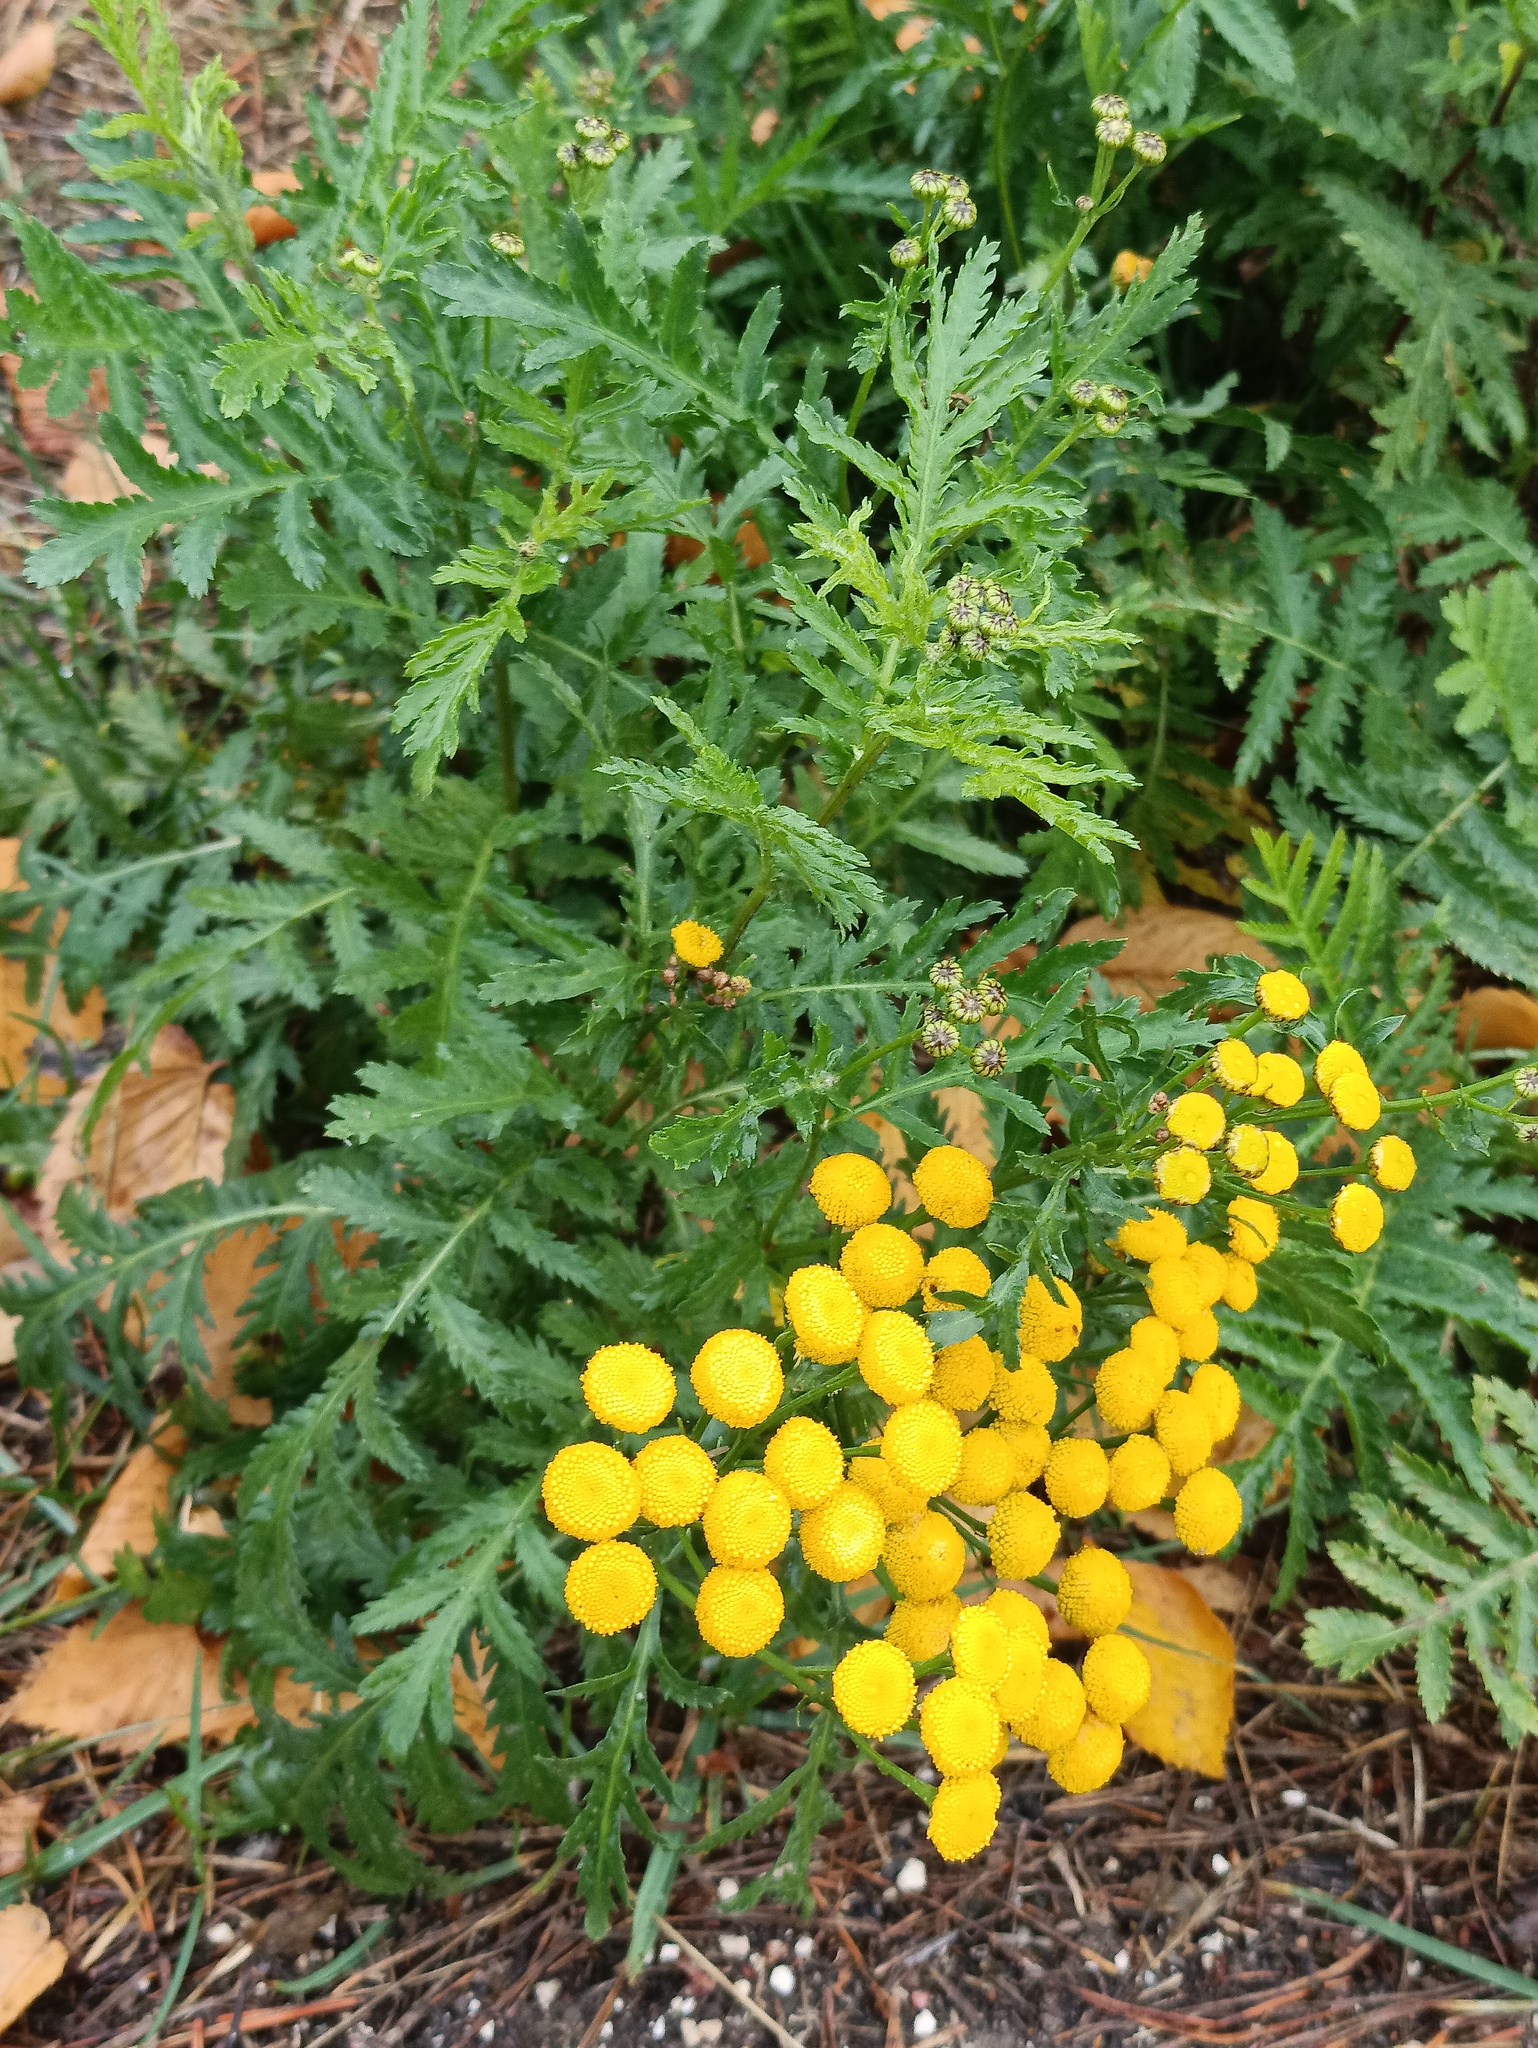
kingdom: Plantae
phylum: Tracheophyta
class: Magnoliopsida
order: Asterales
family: Asteraceae
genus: Tanacetum
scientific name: Tanacetum vulgare
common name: Common tansy
